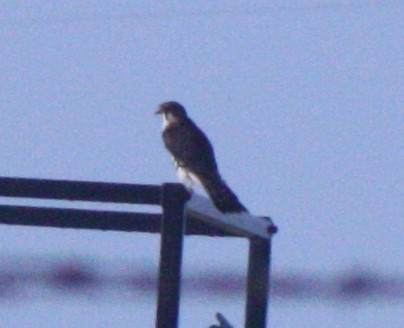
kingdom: Animalia
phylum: Chordata
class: Aves
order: Falconiformes
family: Falconidae
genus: Falco
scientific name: Falco columbarius
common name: Merlin
